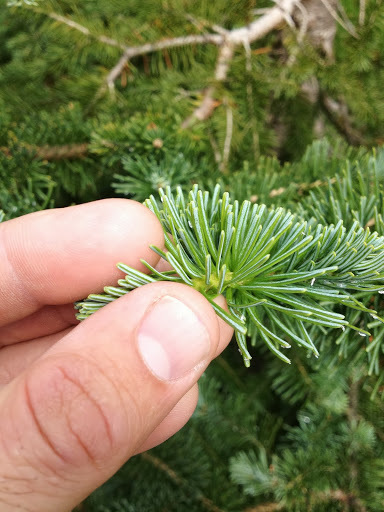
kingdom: Plantae
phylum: Tracheophyta
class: Pinopsida
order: Pinales
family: Pinaceae
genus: Abies
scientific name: Abies lasiocarpa
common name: Subalpine fir
